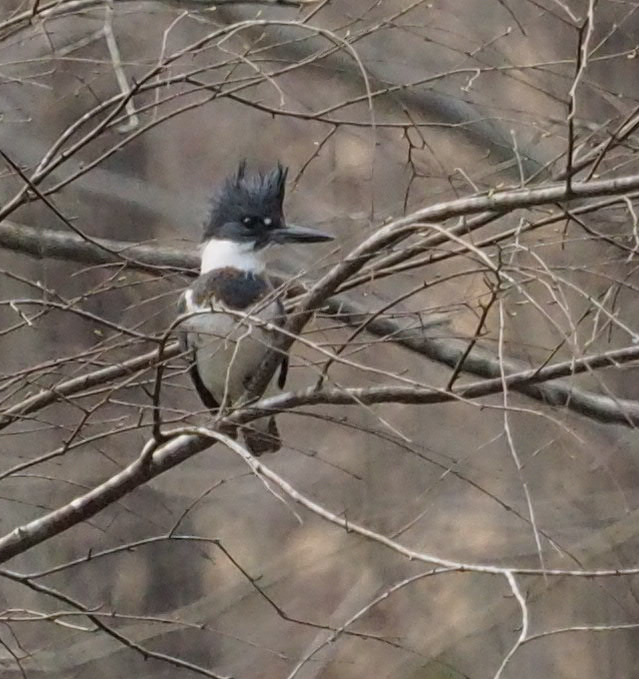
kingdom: Animalia
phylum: Chordata
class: Aves
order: Coraciiformes
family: Alcedinidae
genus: Megaceryle
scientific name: Megaceryle alcyon
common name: Belted kingfisher
